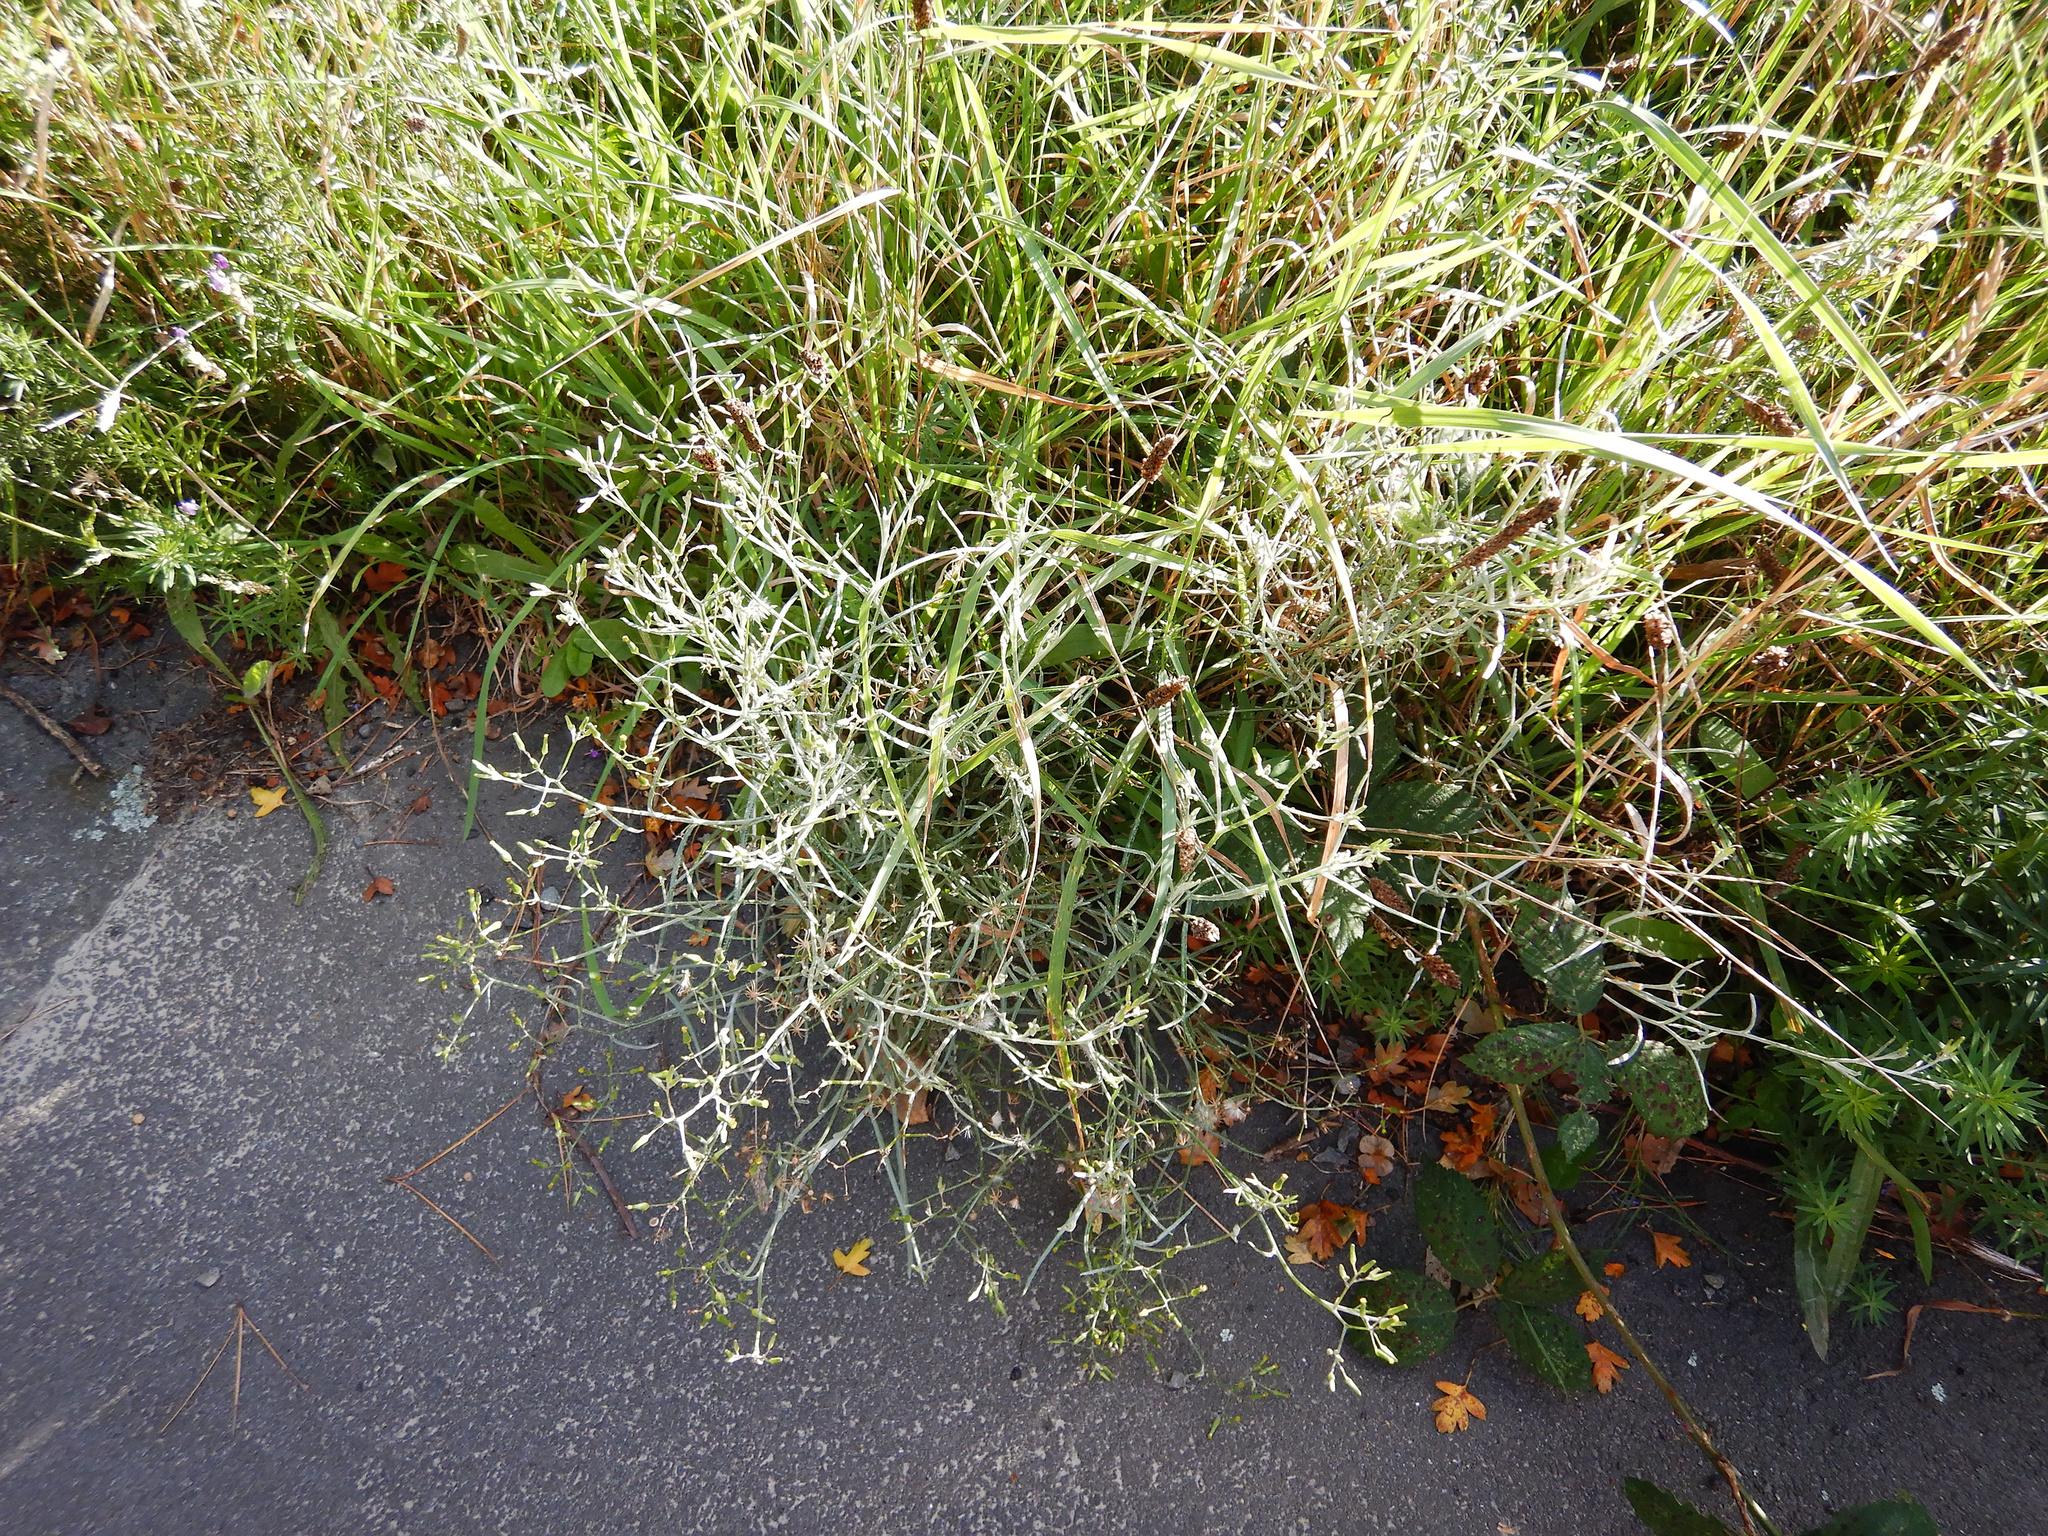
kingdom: Plantae
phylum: Tracheophyta
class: Magnoliopsida
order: Asterales
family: Asteraceae
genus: Senecio
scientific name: Senecio quadridentatus
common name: Cotton fireweed
